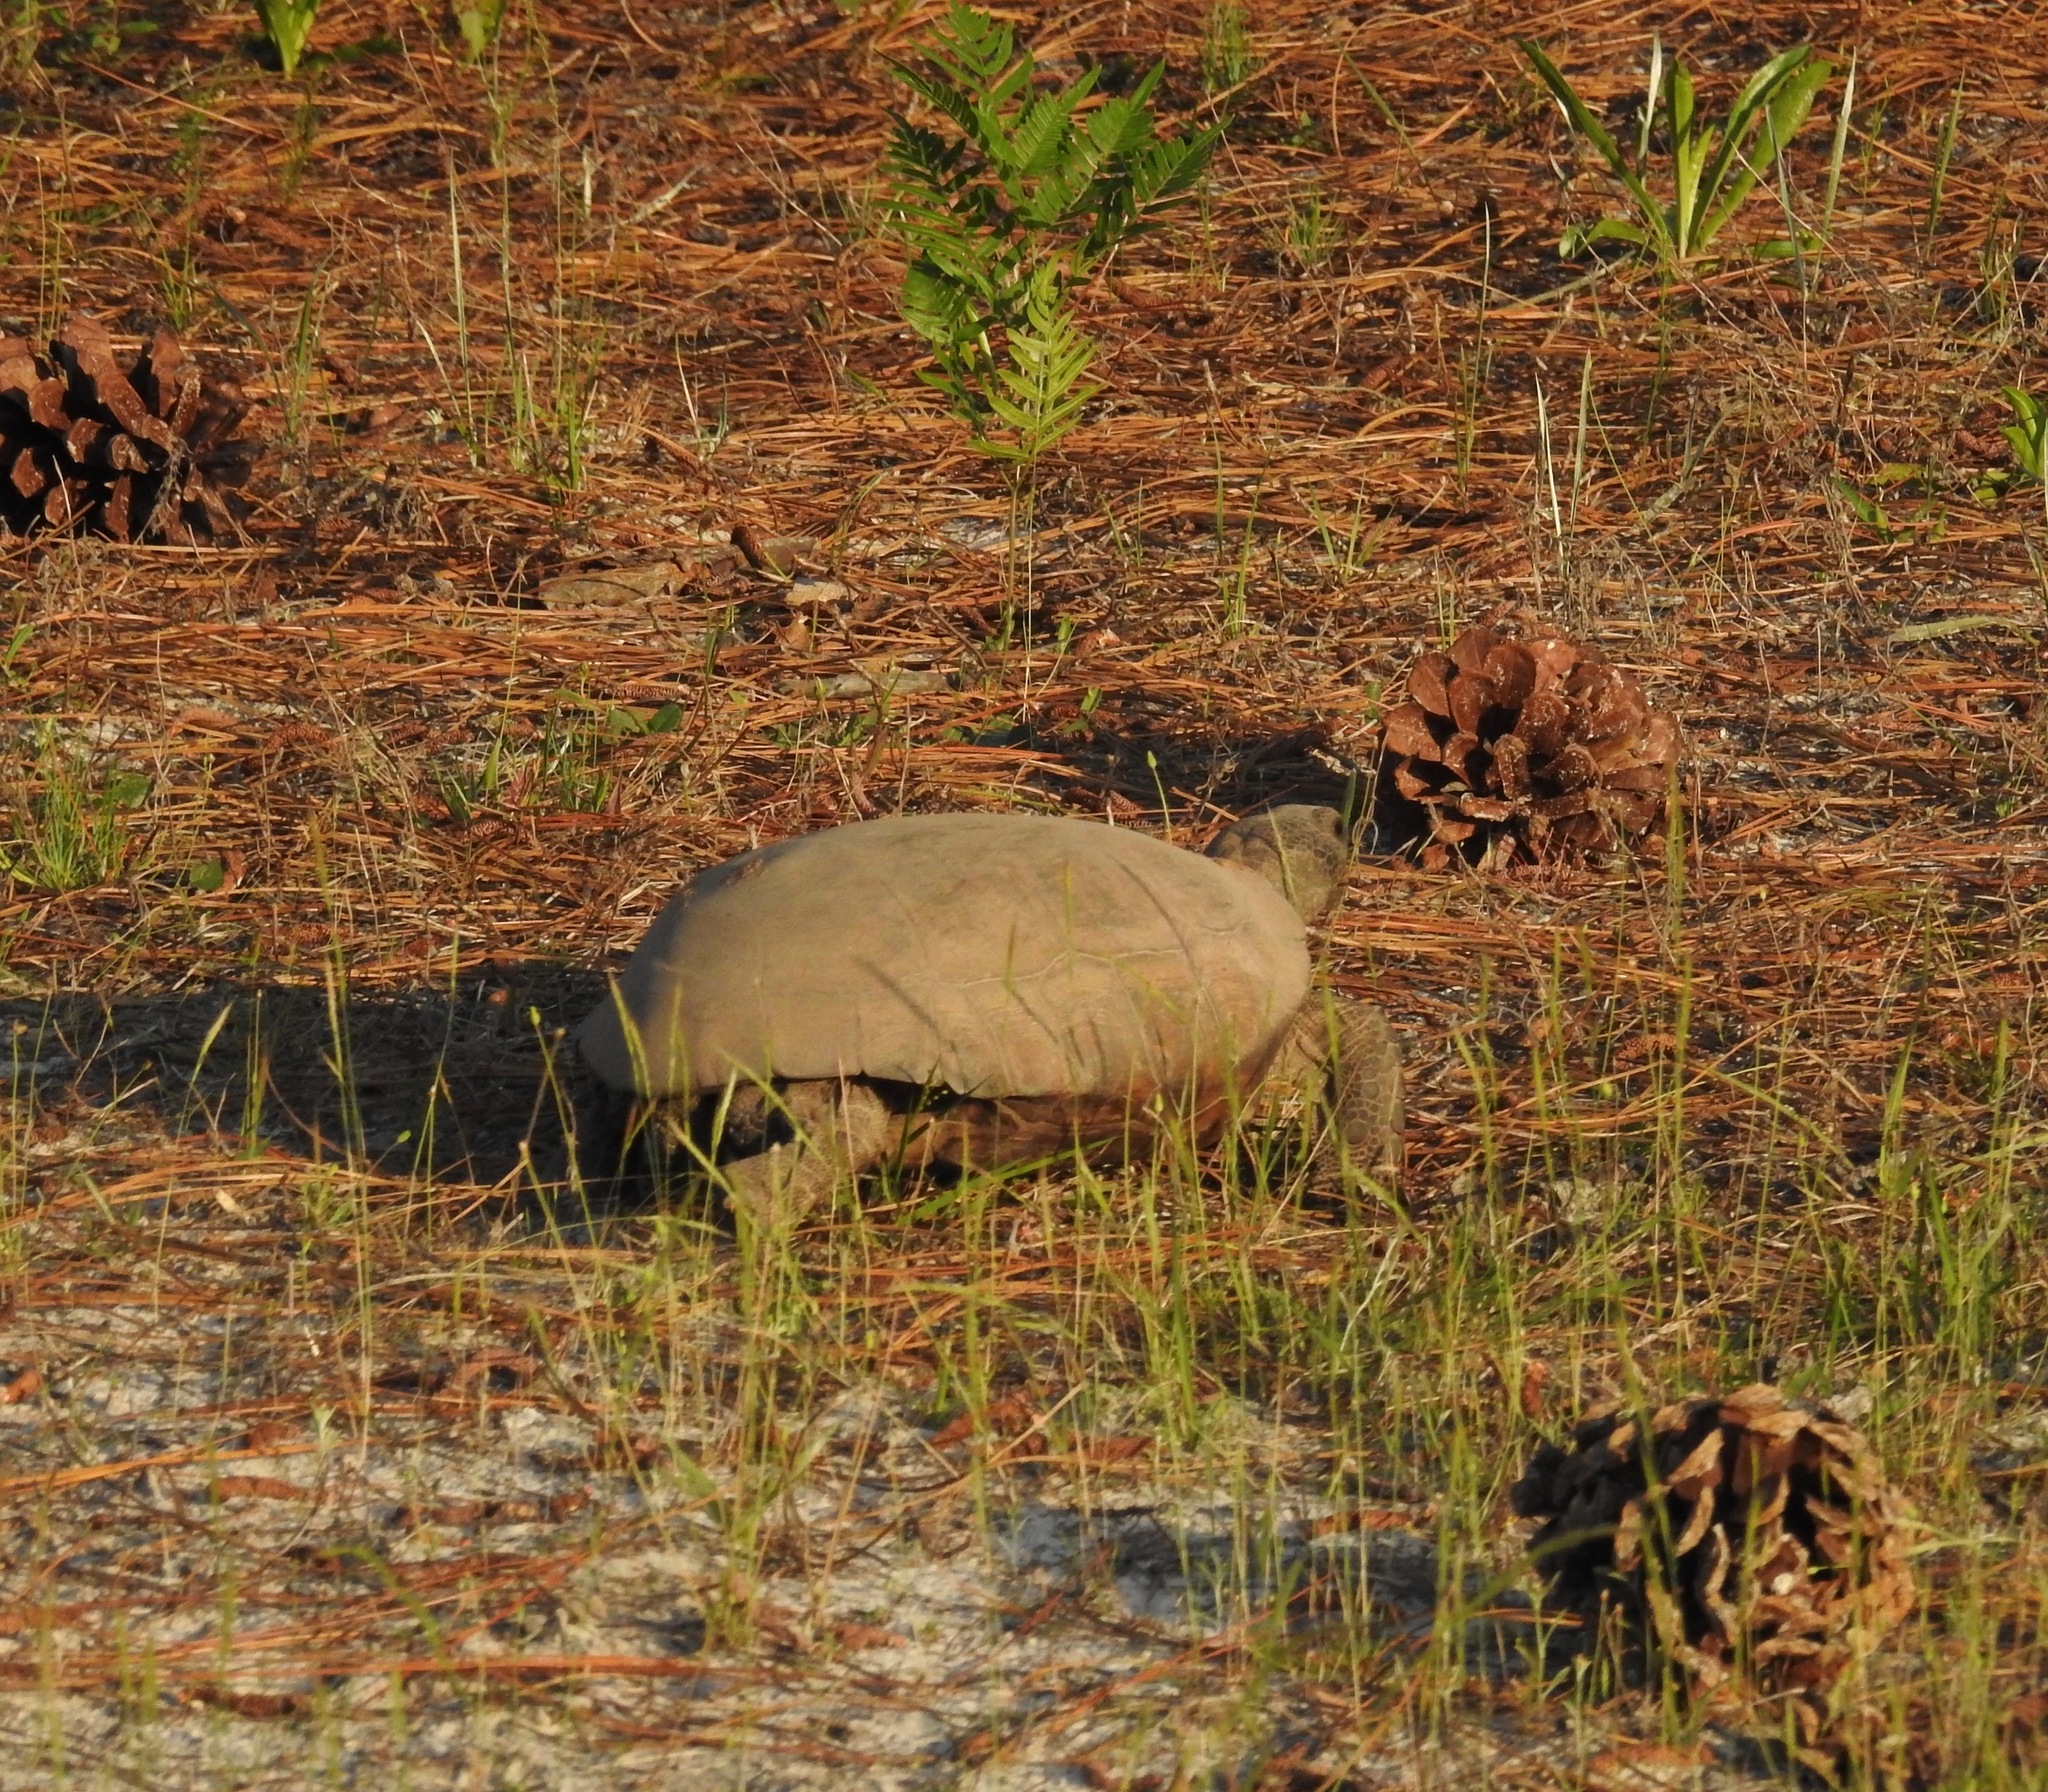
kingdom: Animalia
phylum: Chordata
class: Testudines
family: Testudinidae
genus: Gopherus
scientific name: Gopherus polyphemus
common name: Florida gopher tortoise
